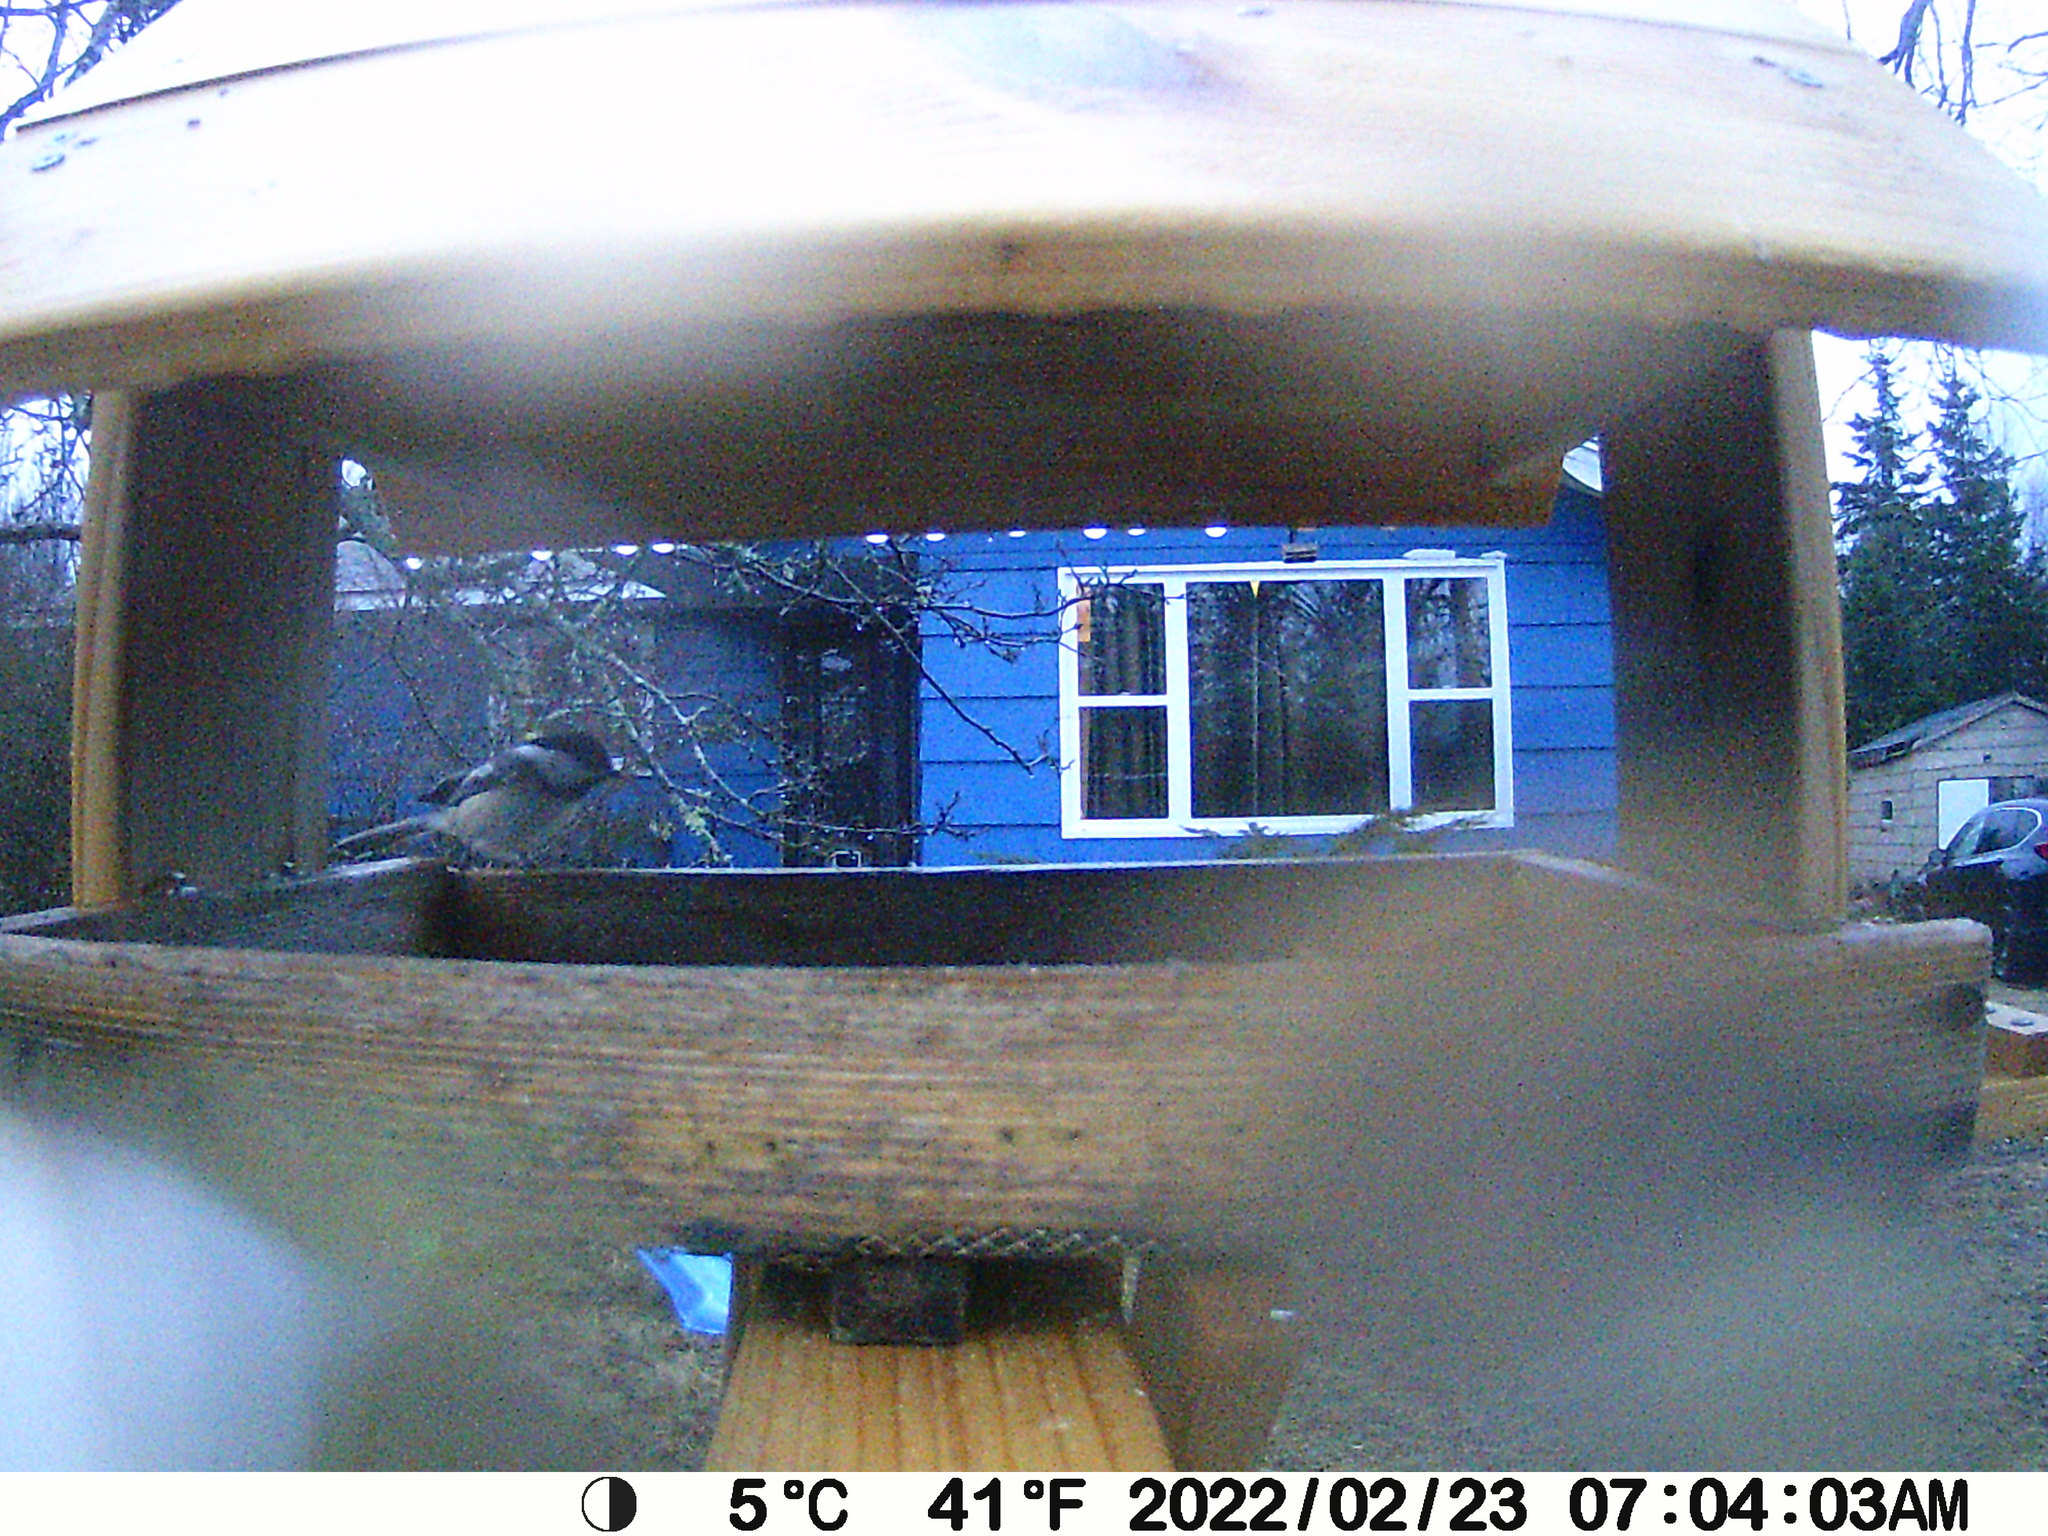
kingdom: Animalia
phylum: Chordata
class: Aves
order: Passeriformes
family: Paridae
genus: Poecile
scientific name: Poecile atricapillus
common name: Black-capped chickadee
